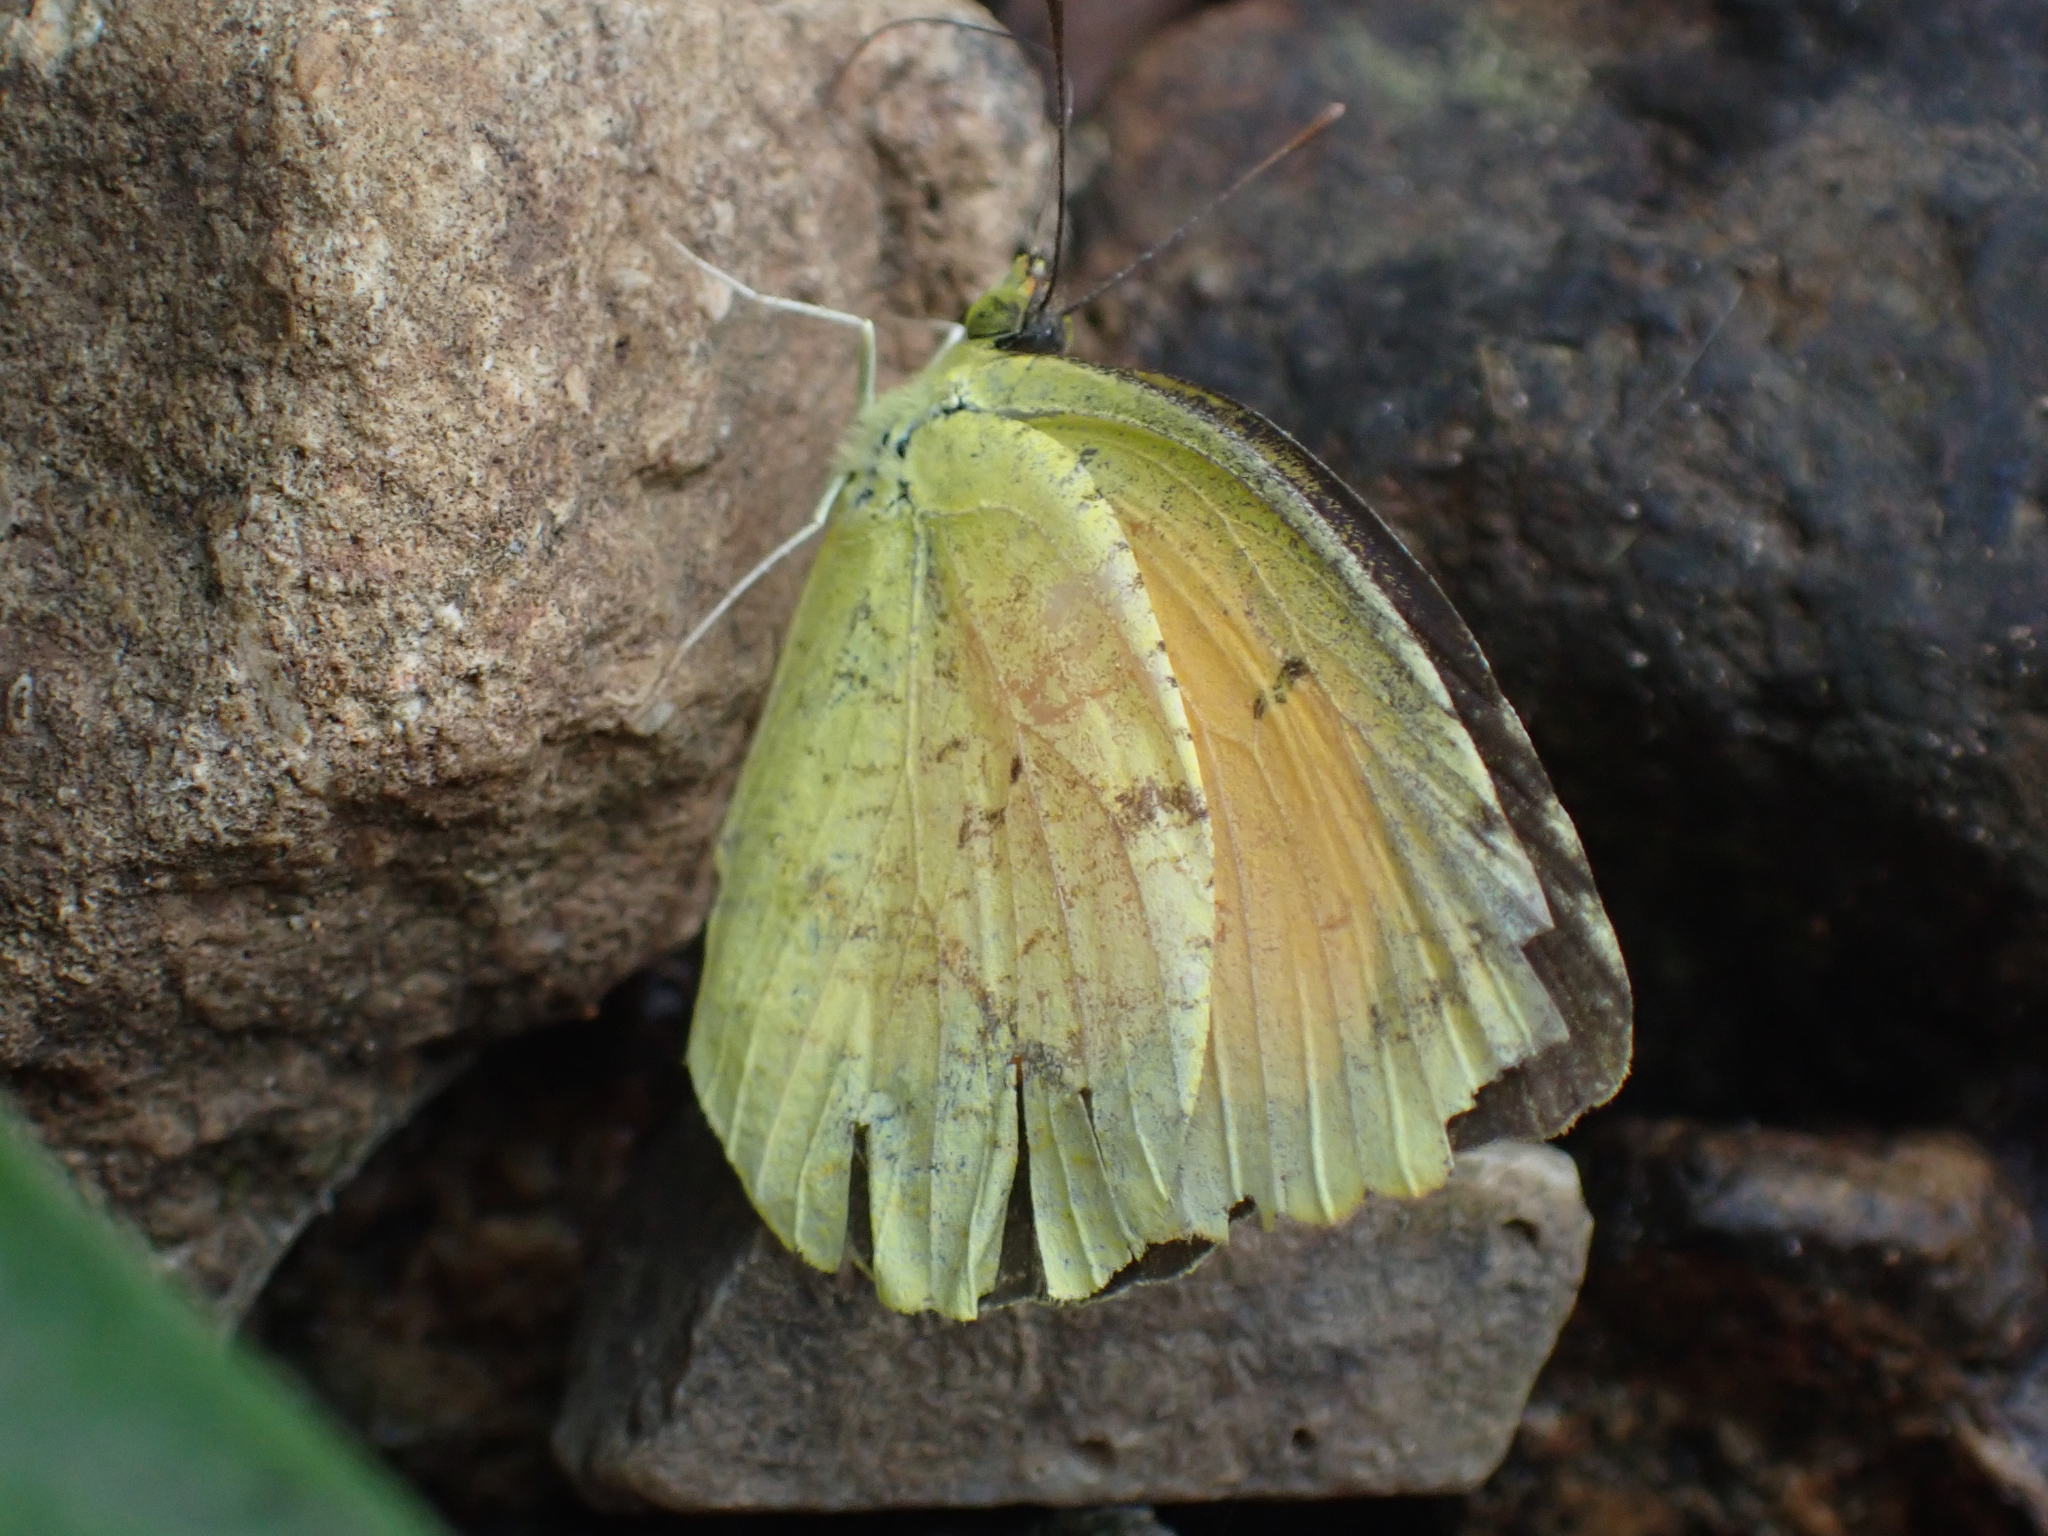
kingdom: Animalia
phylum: Arthropoda
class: Insecta
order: Lepidoptera
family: Pieridae
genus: Abaeis
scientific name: Abaeis nicippe
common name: Sleepy orange
